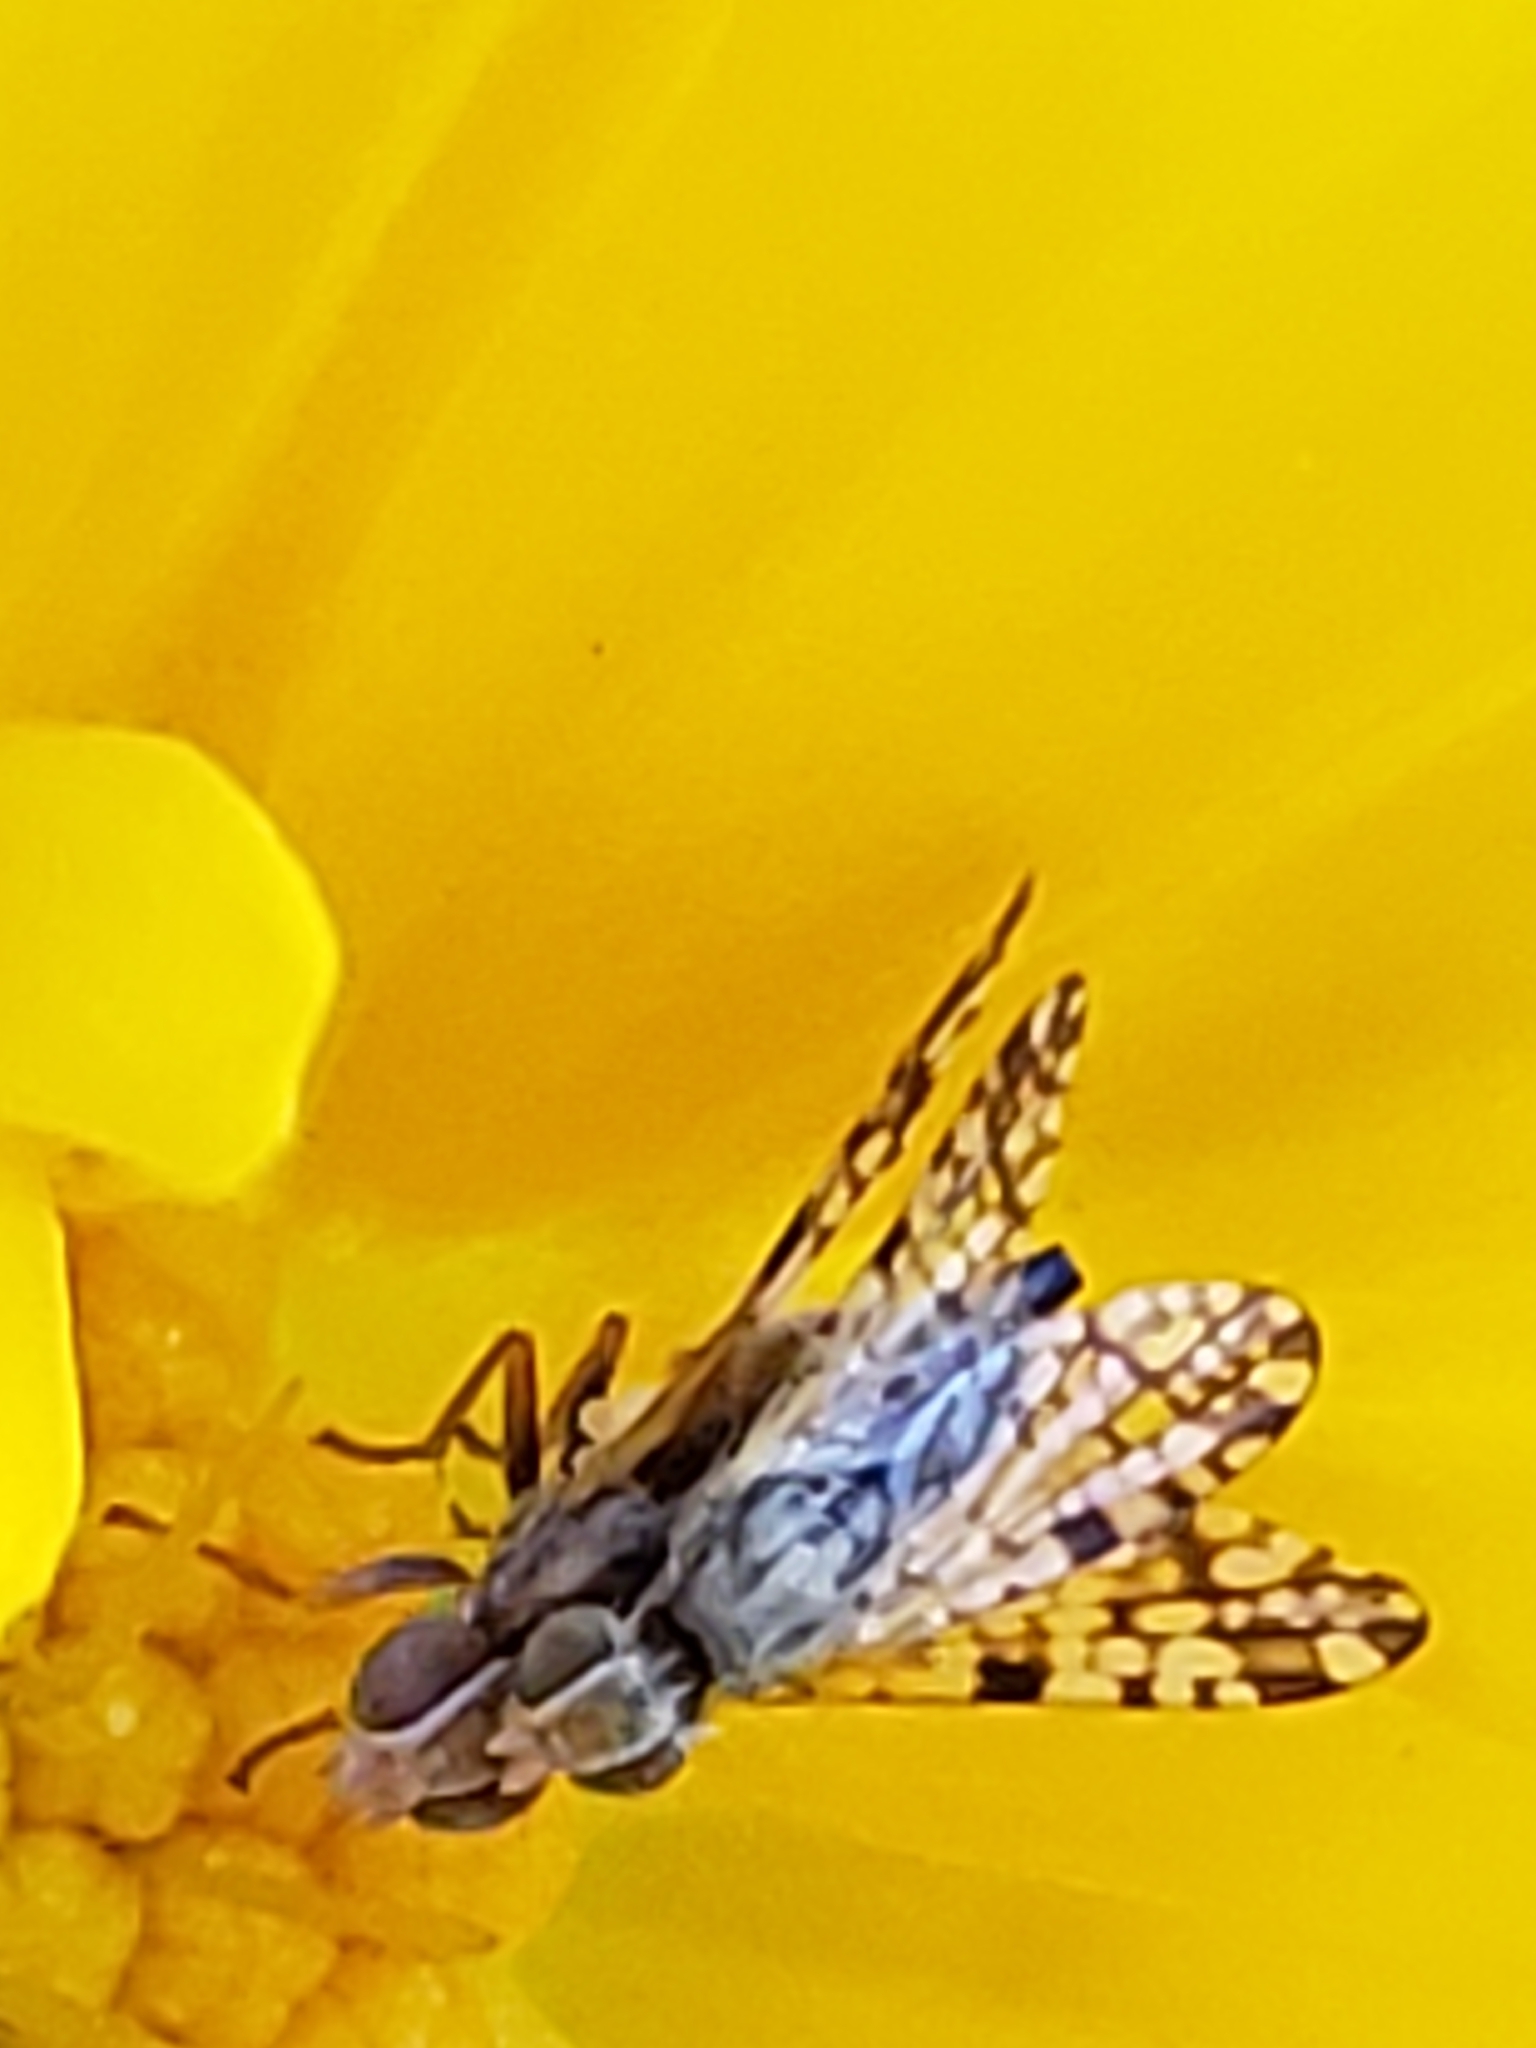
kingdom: Animalia
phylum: Arthropoda
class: Insecta
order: Diptera
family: Tephritidae
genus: Dioxyna
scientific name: Dioxyna picciola
